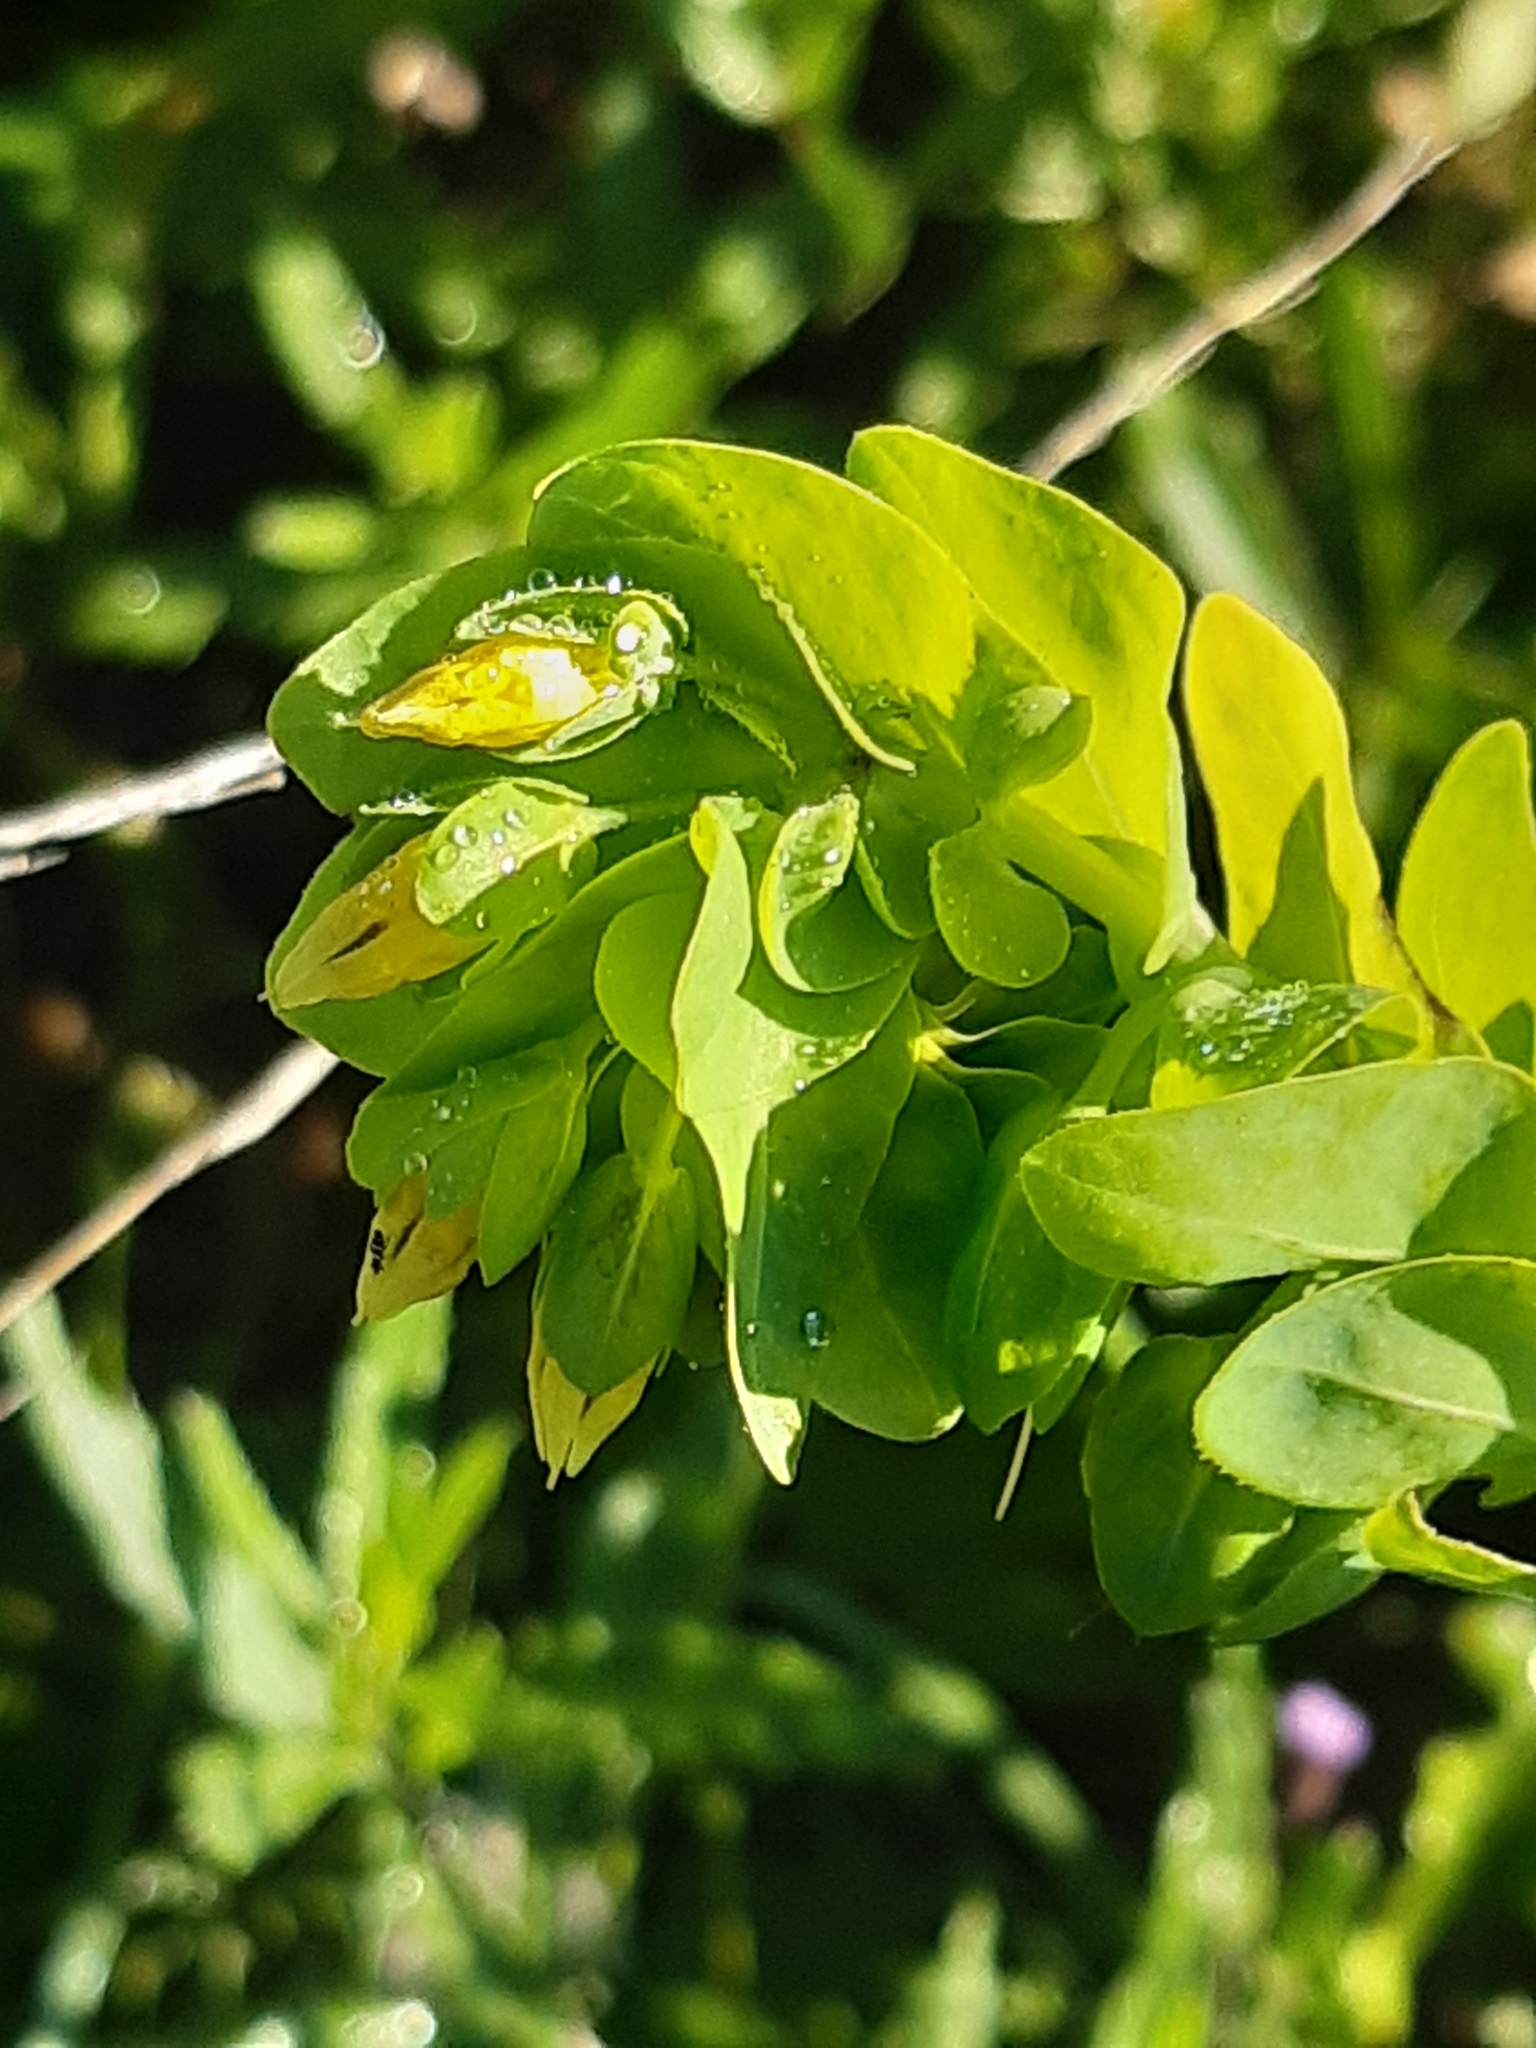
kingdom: Plantae
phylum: Tracheophyta
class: Magnoliopsida
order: Boraginales
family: Boraginaceae
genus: Cerinthe
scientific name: Cerinthe minor
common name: Lesser honeywort
